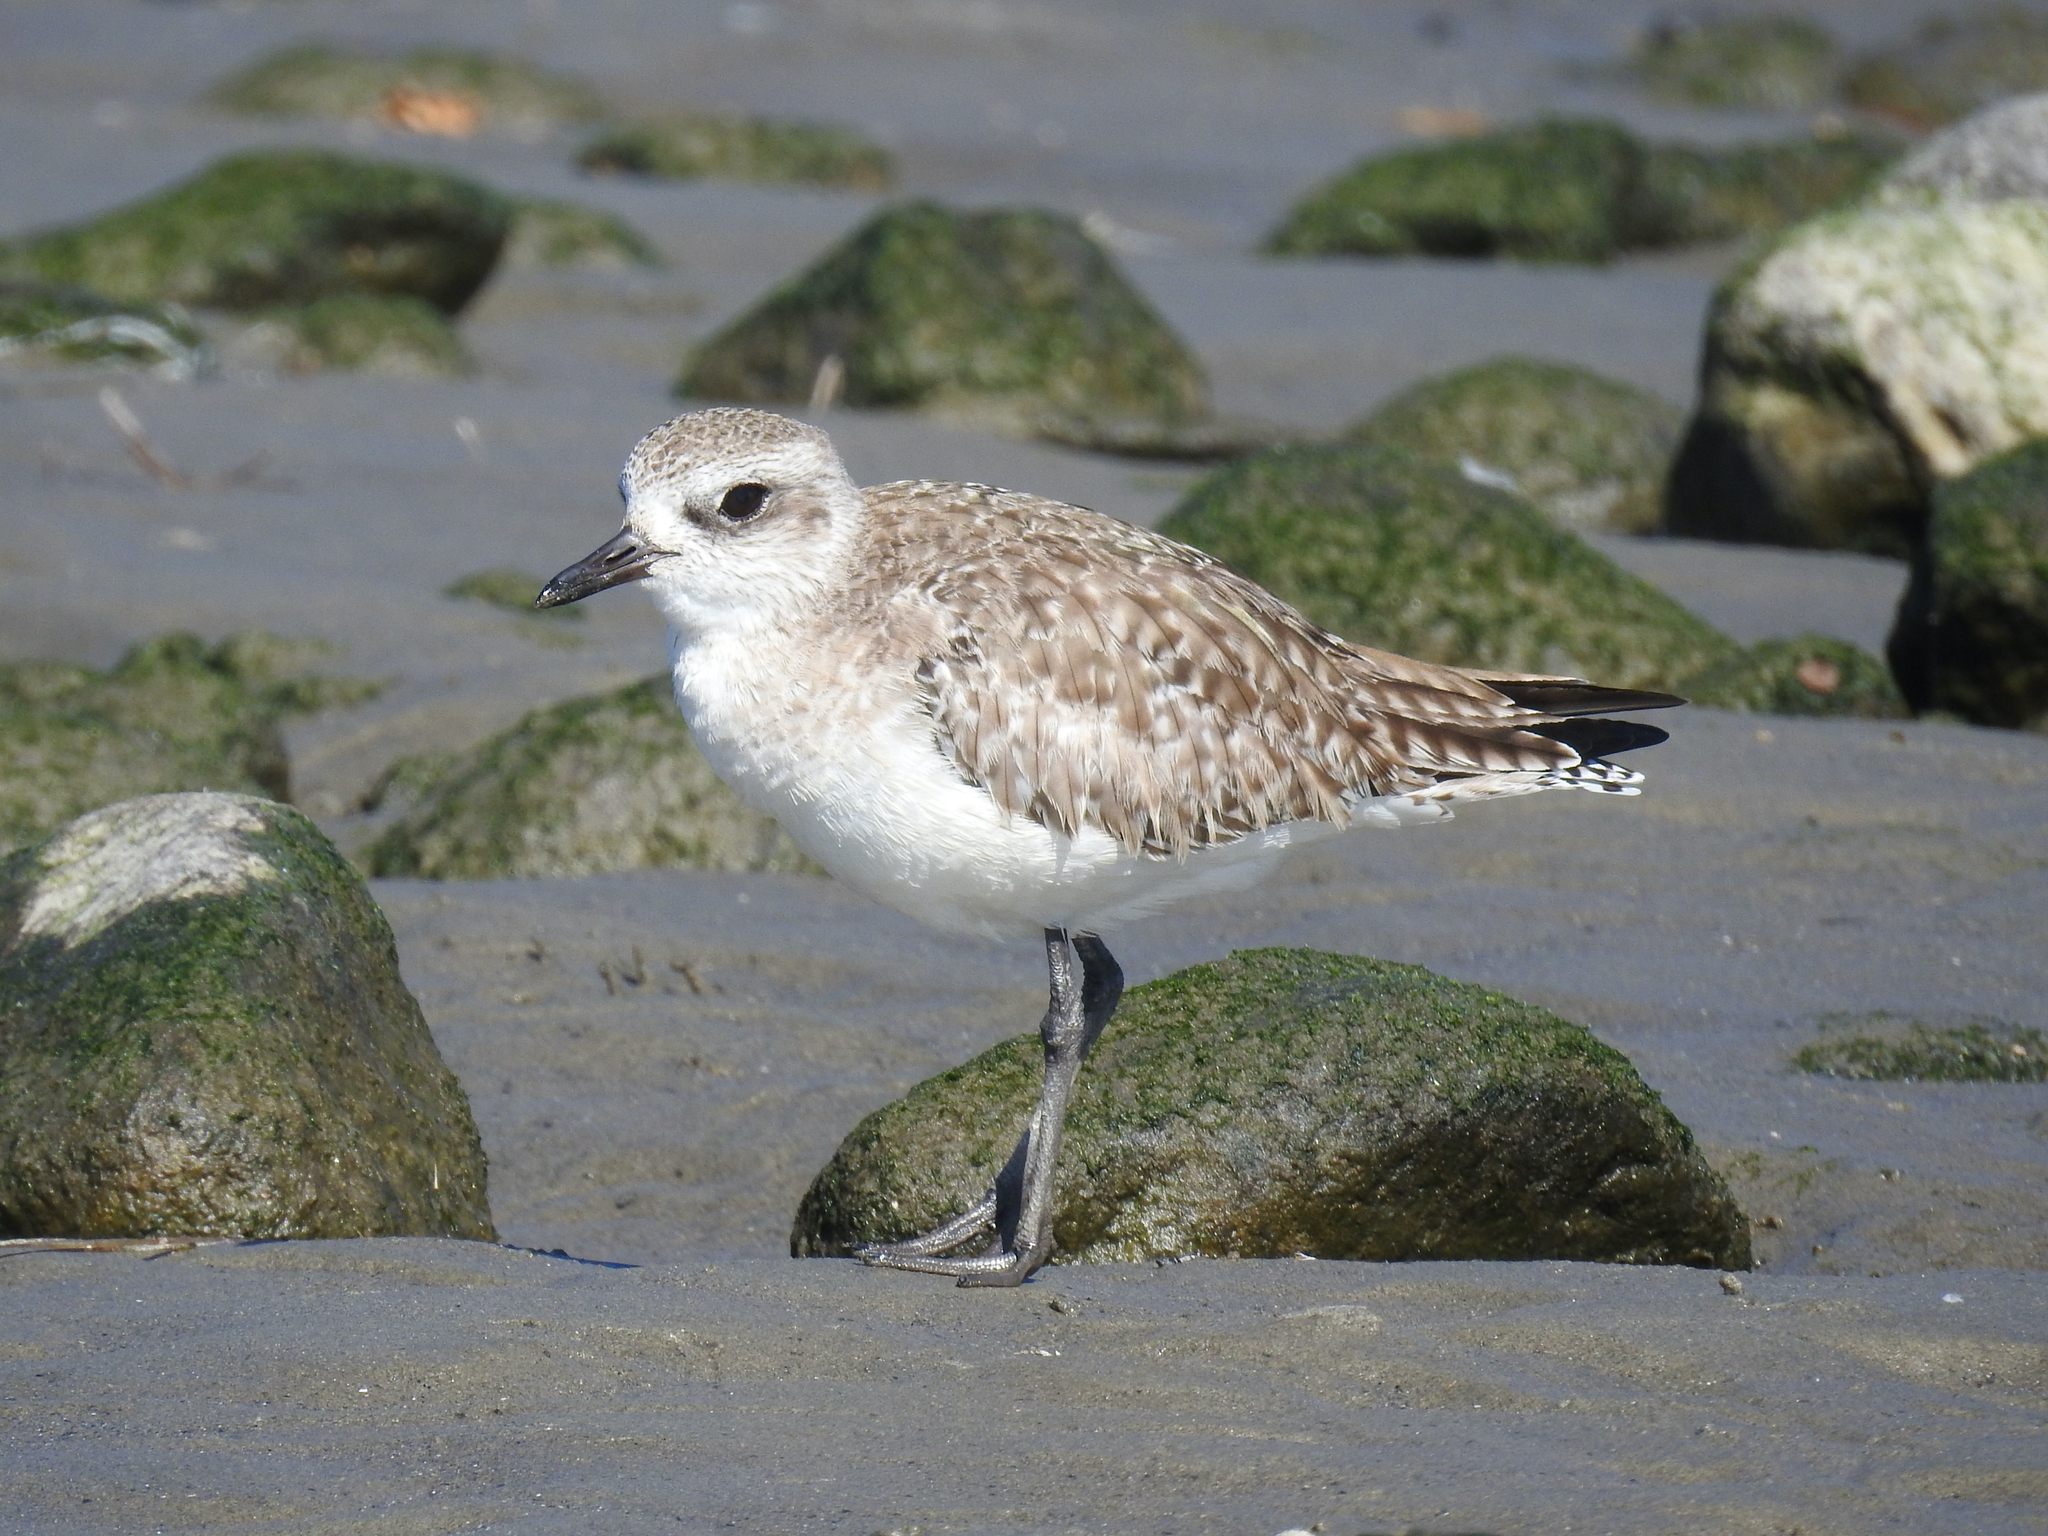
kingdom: Animalia
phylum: Chordata
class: Aves
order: Charadriiformes
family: Charadriidae
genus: Pluvialis
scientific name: Pluvialis squatarola
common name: Grey plover
